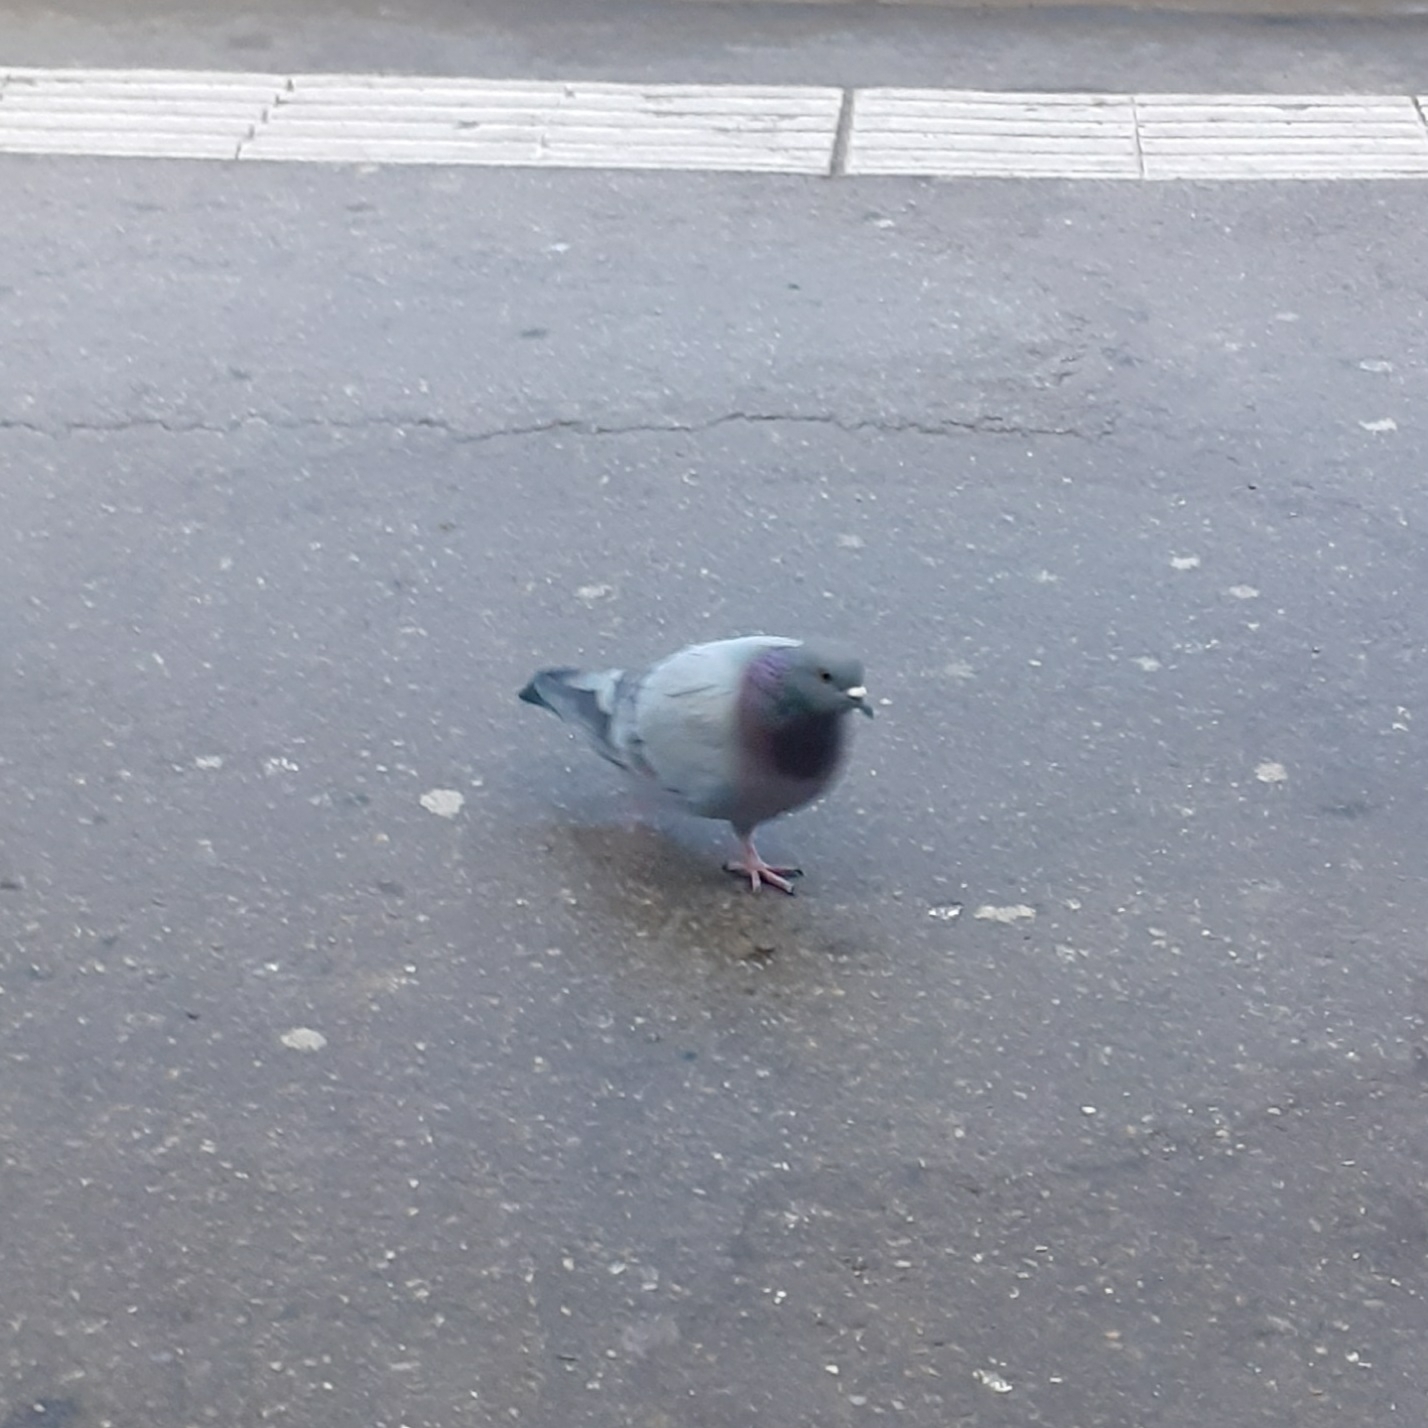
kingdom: Animalia
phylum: Chordata
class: Aves
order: Columbiformes
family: Columbidae
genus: Columba
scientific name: Columba livia
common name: Rock pigeon
